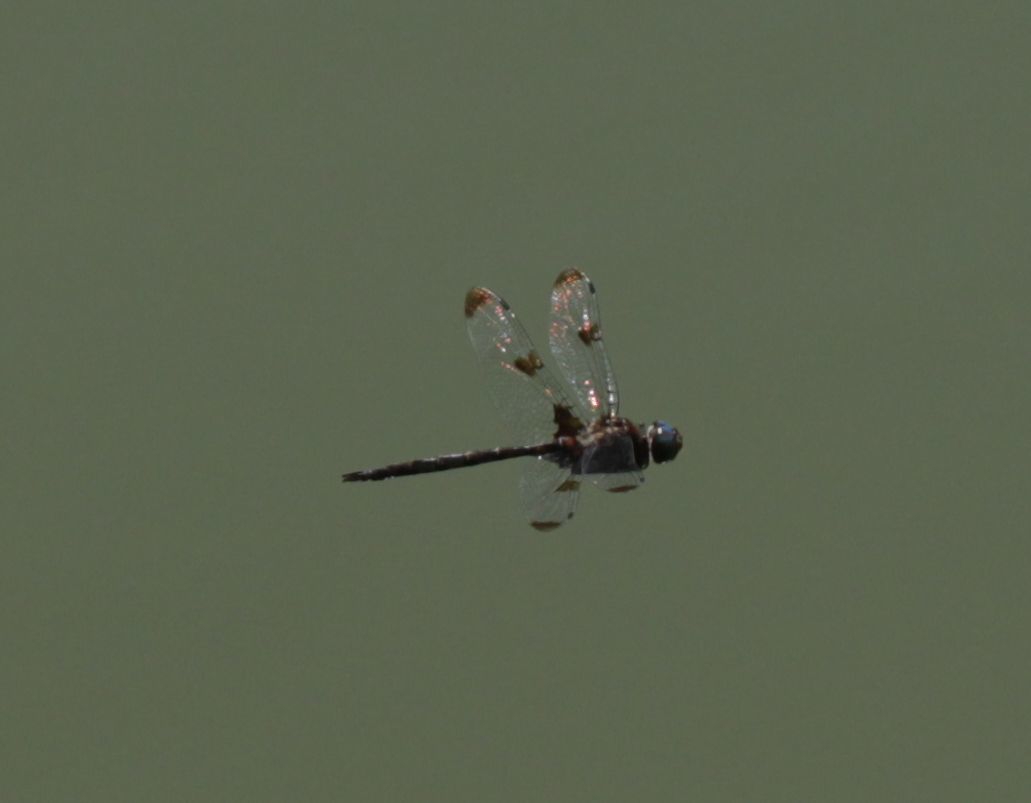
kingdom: Animalia
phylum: Arthropoda
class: Insecta
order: Odonata
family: Corduliidae
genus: Epitheca
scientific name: Epitheca princeps
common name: Prince baskettail
